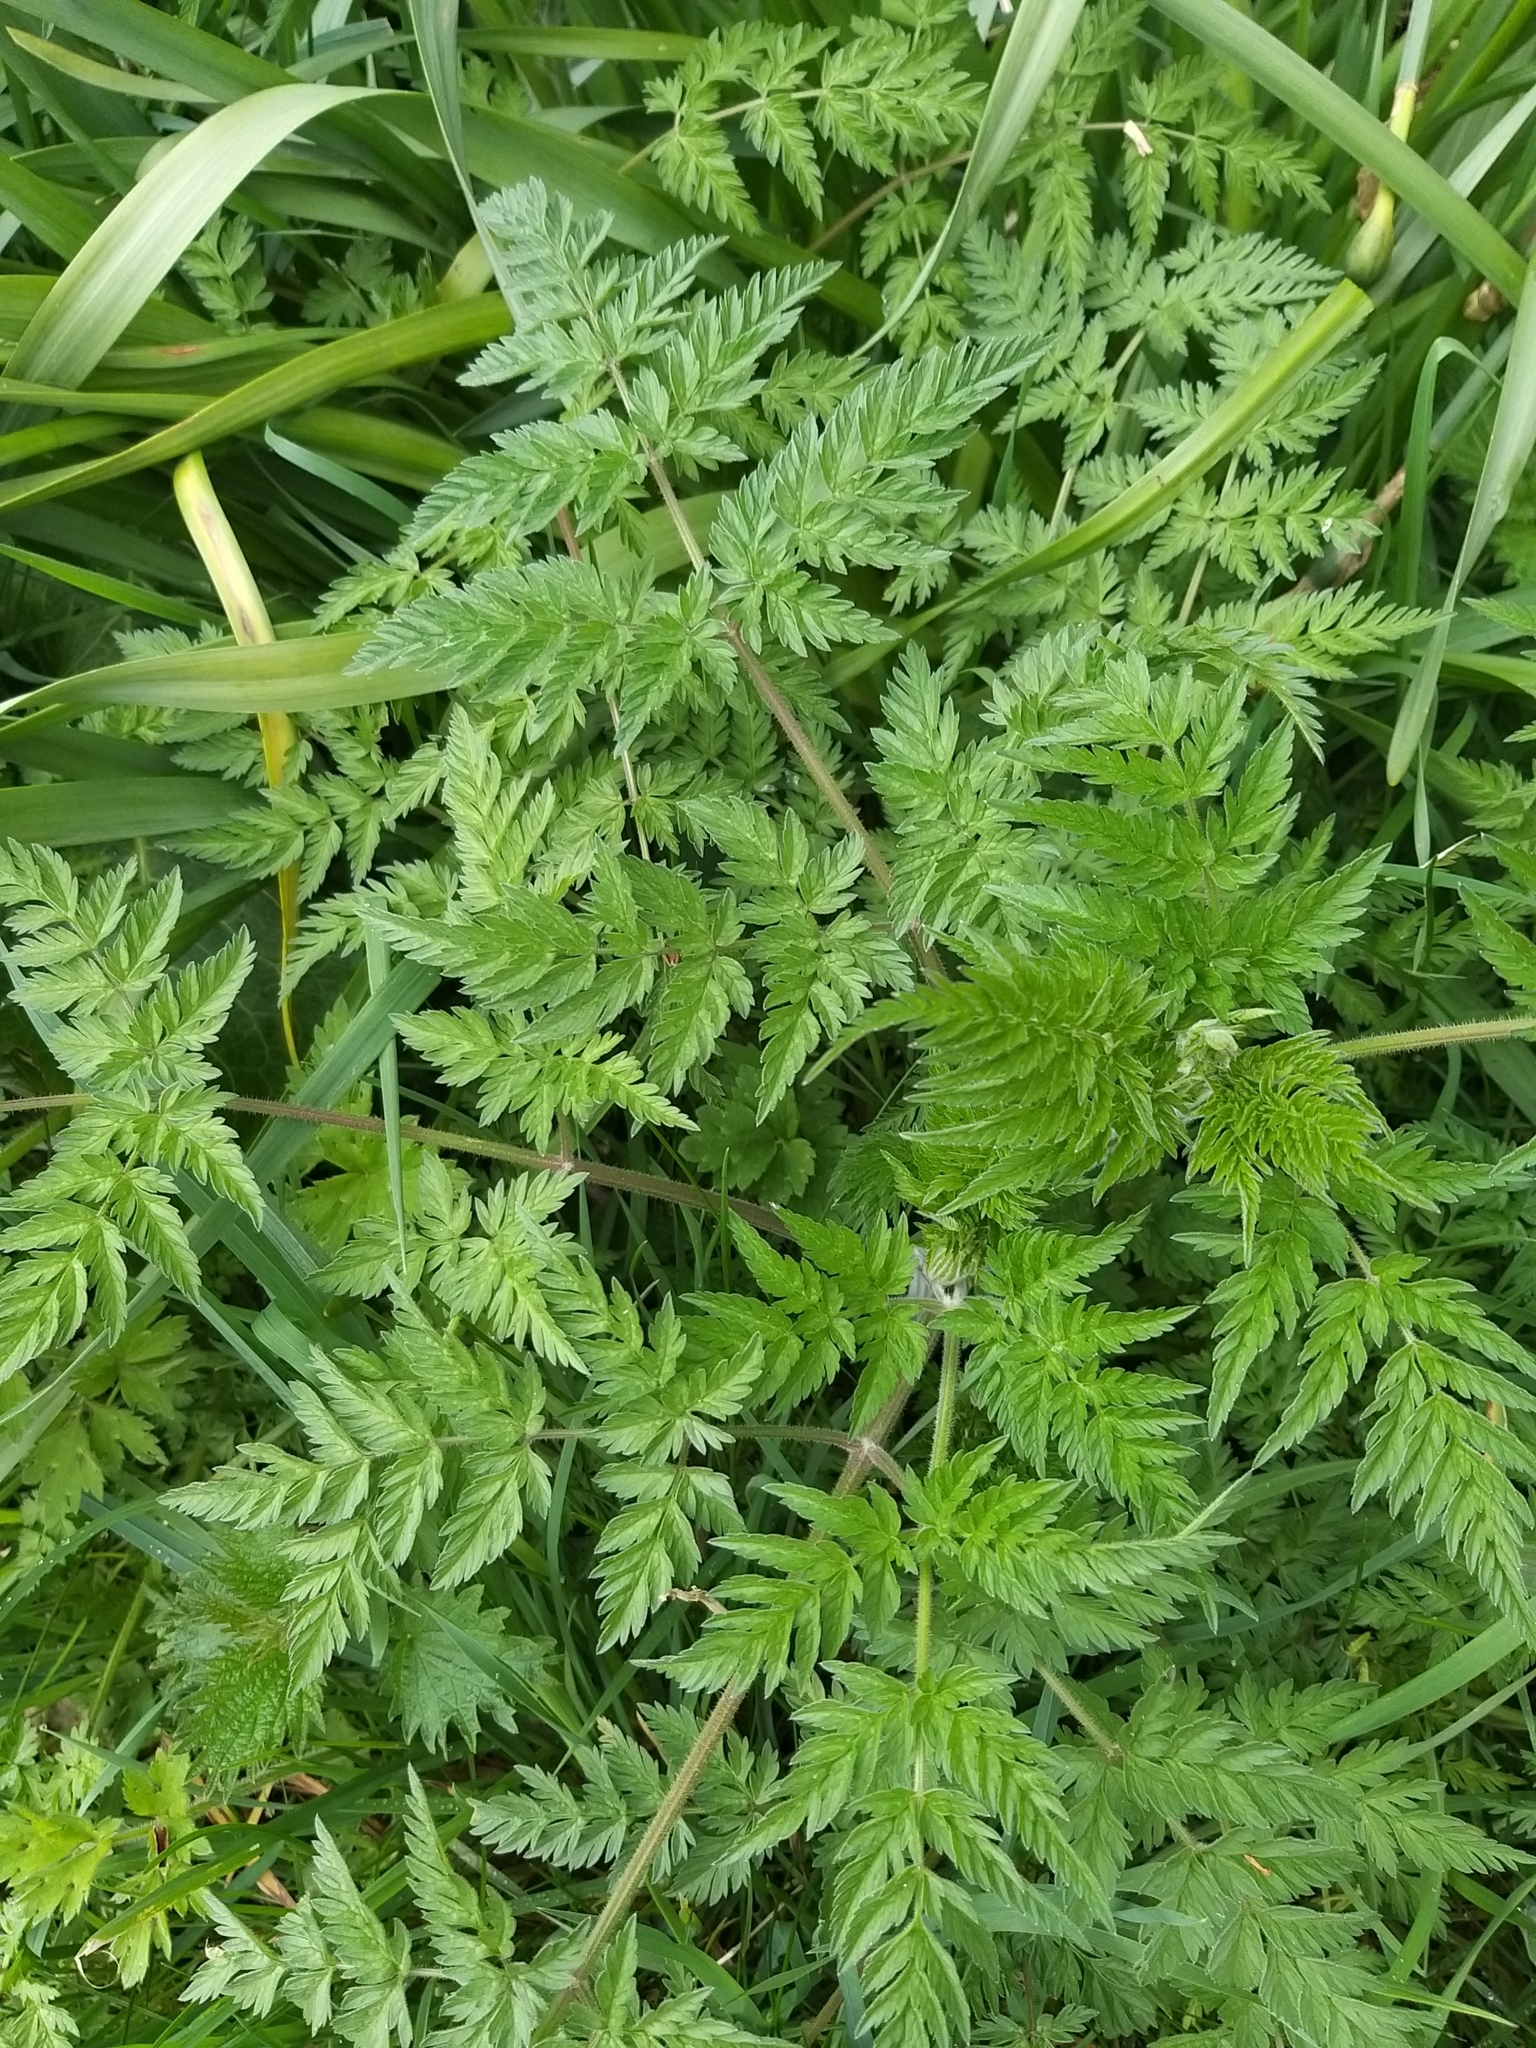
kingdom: Plantae
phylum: Tracheophyta
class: Magnoliopsida
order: Apiales
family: Apiaceae
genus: Anthriscus
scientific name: Anthriscus sylvestris
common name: Cow parsley
